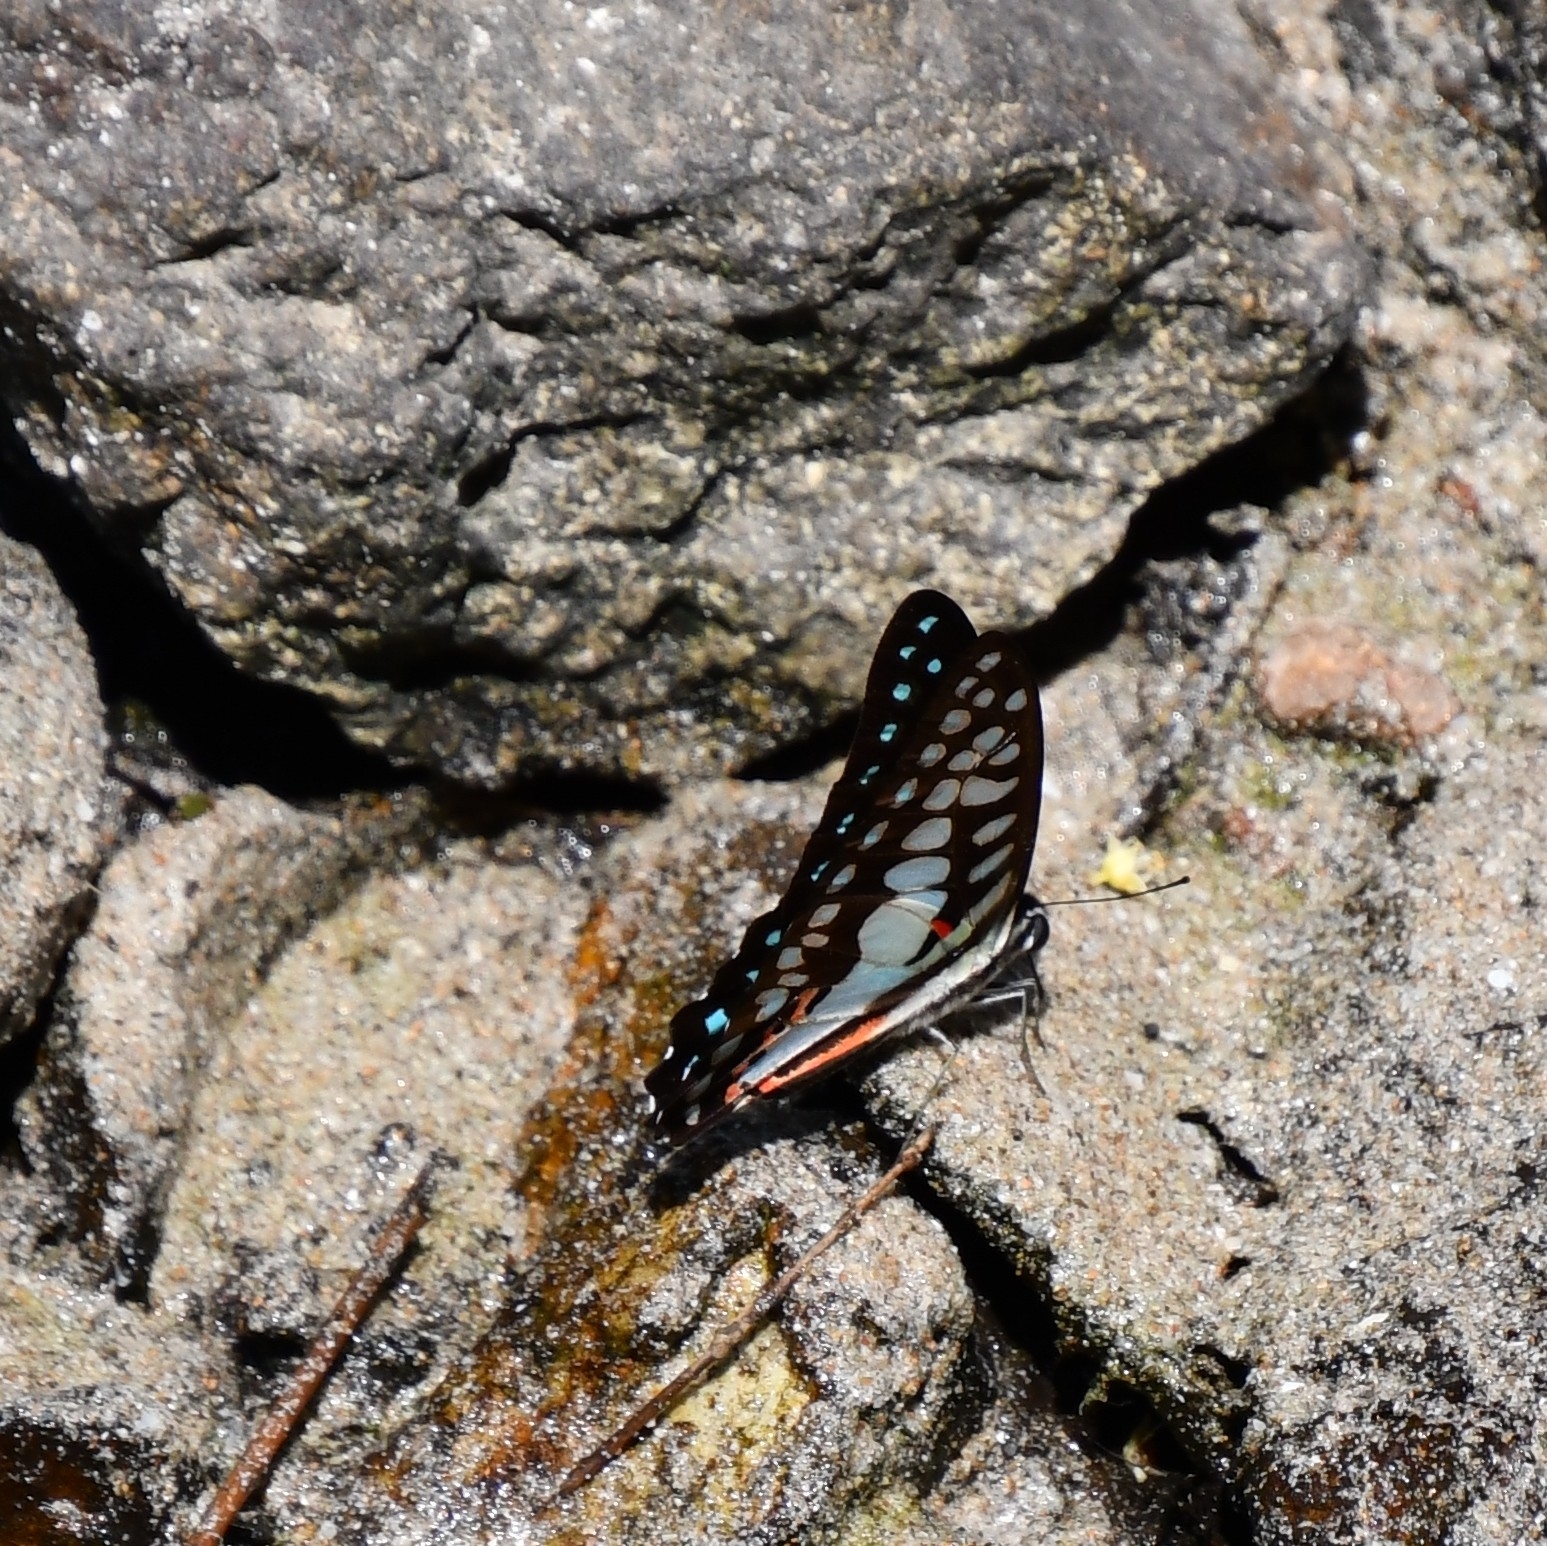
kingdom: Animalia
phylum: Arthropoda
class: Insecta
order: Lepidoptera
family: Papilionidae
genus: Graphium
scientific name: Graphium doson
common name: Common jay
